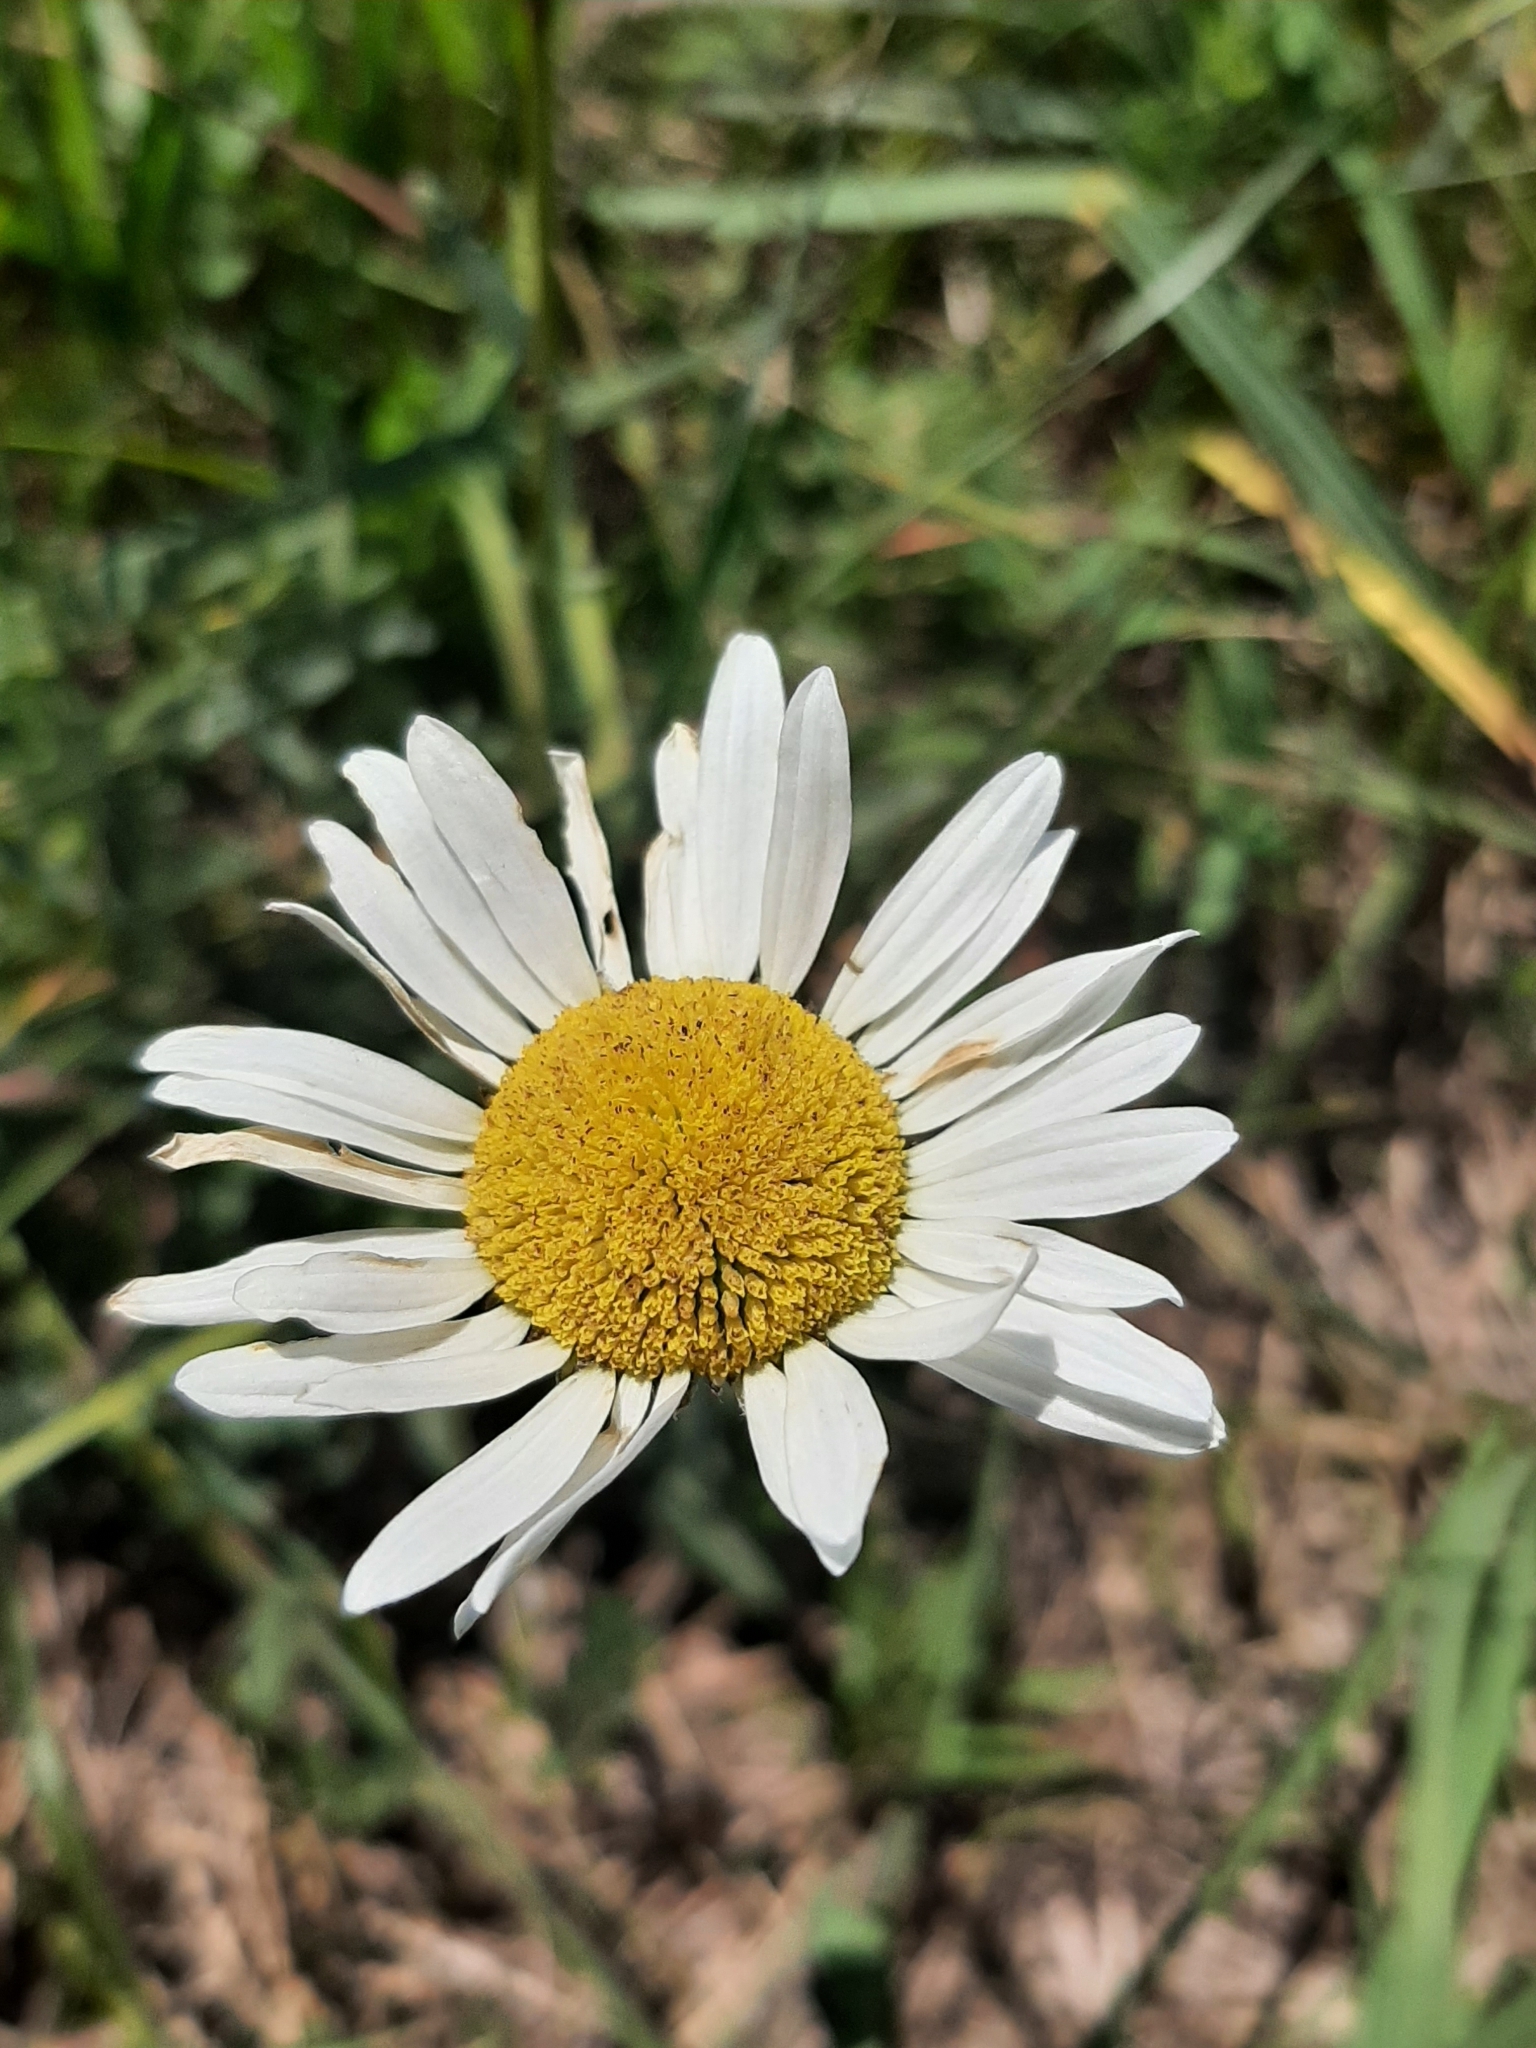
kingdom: Plantae
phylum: Tracheophyta
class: Magnoliopsida
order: Asterales
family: Asteraceae
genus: Leucanthemum
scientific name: Leucanthemum vulgare
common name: Oxeye daisy
